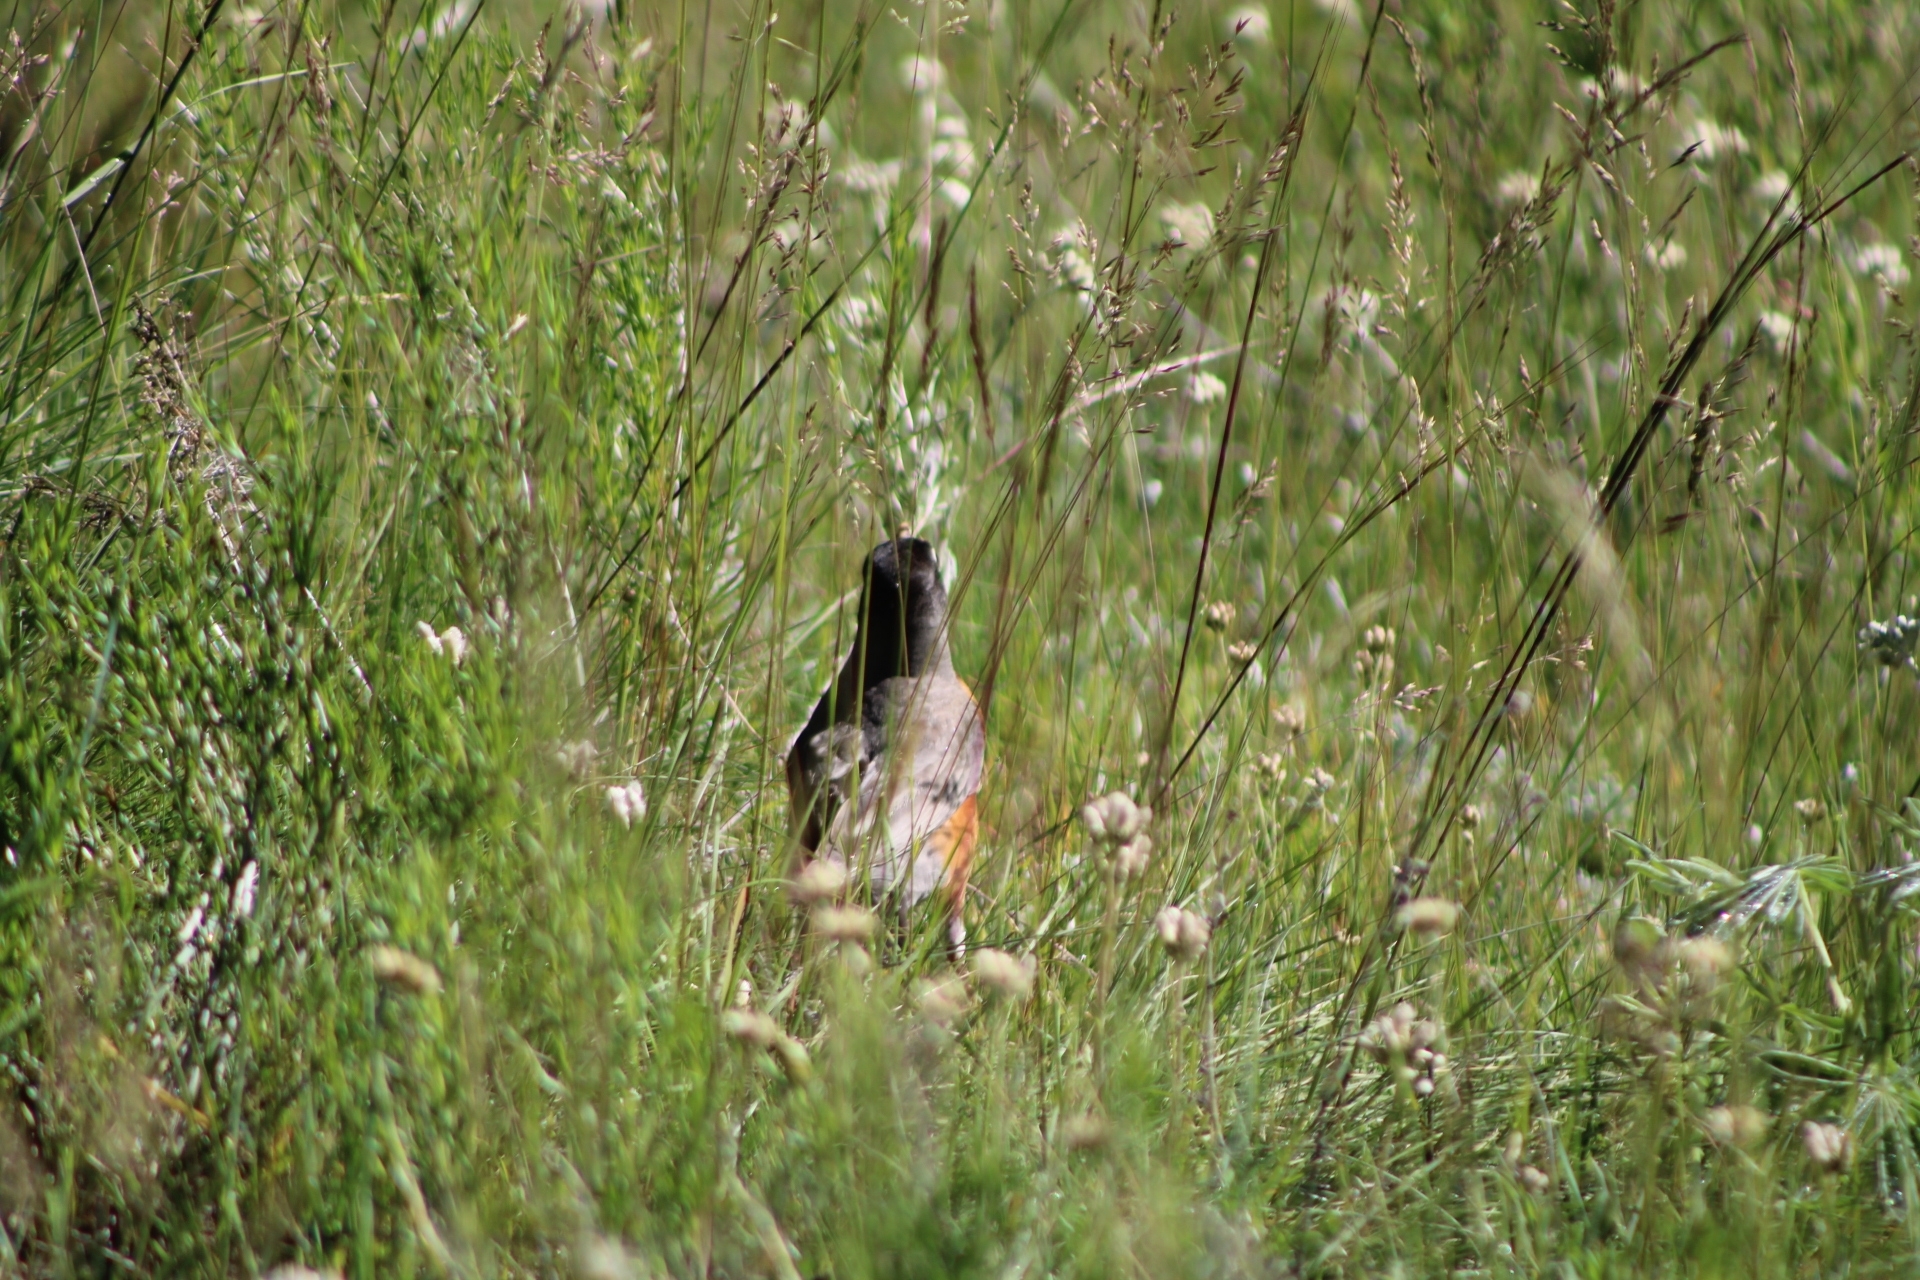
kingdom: Animalia
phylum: Chordata
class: Aves
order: Passeriformes
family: Turdidae
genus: Turdus
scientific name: Turdus migratorius
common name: American robin
